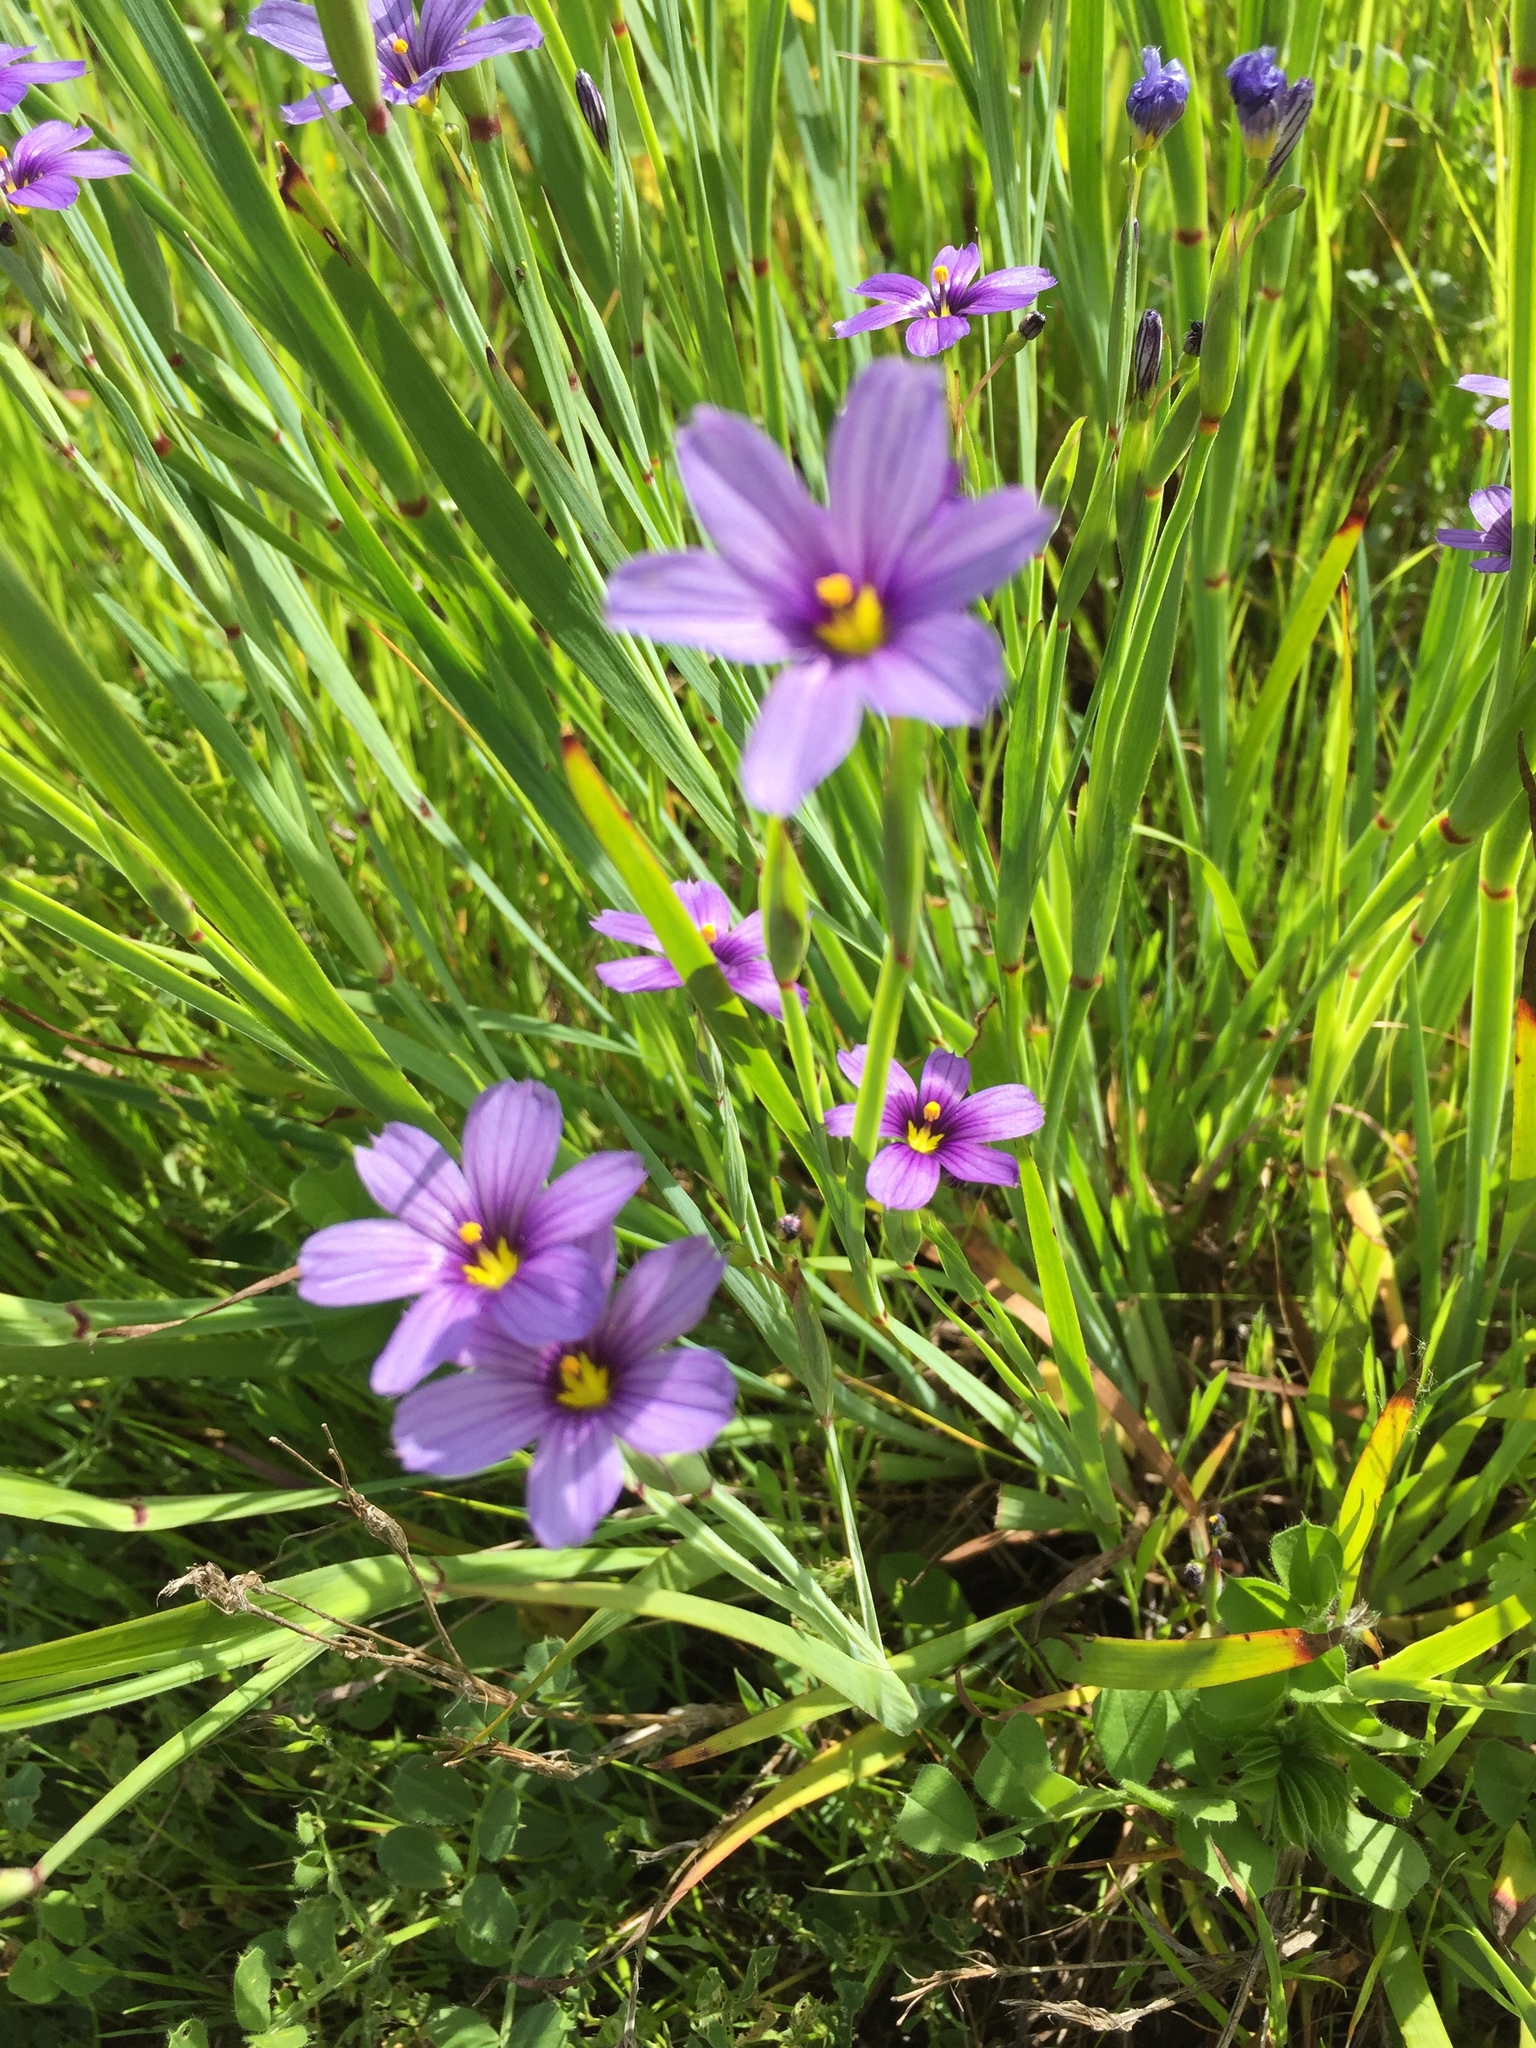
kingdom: Plantae
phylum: Tracheophyta
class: Liliopsida
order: Asparagales
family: Iridaceae
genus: Sisyrinchium
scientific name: Sisyrinchium bellum
